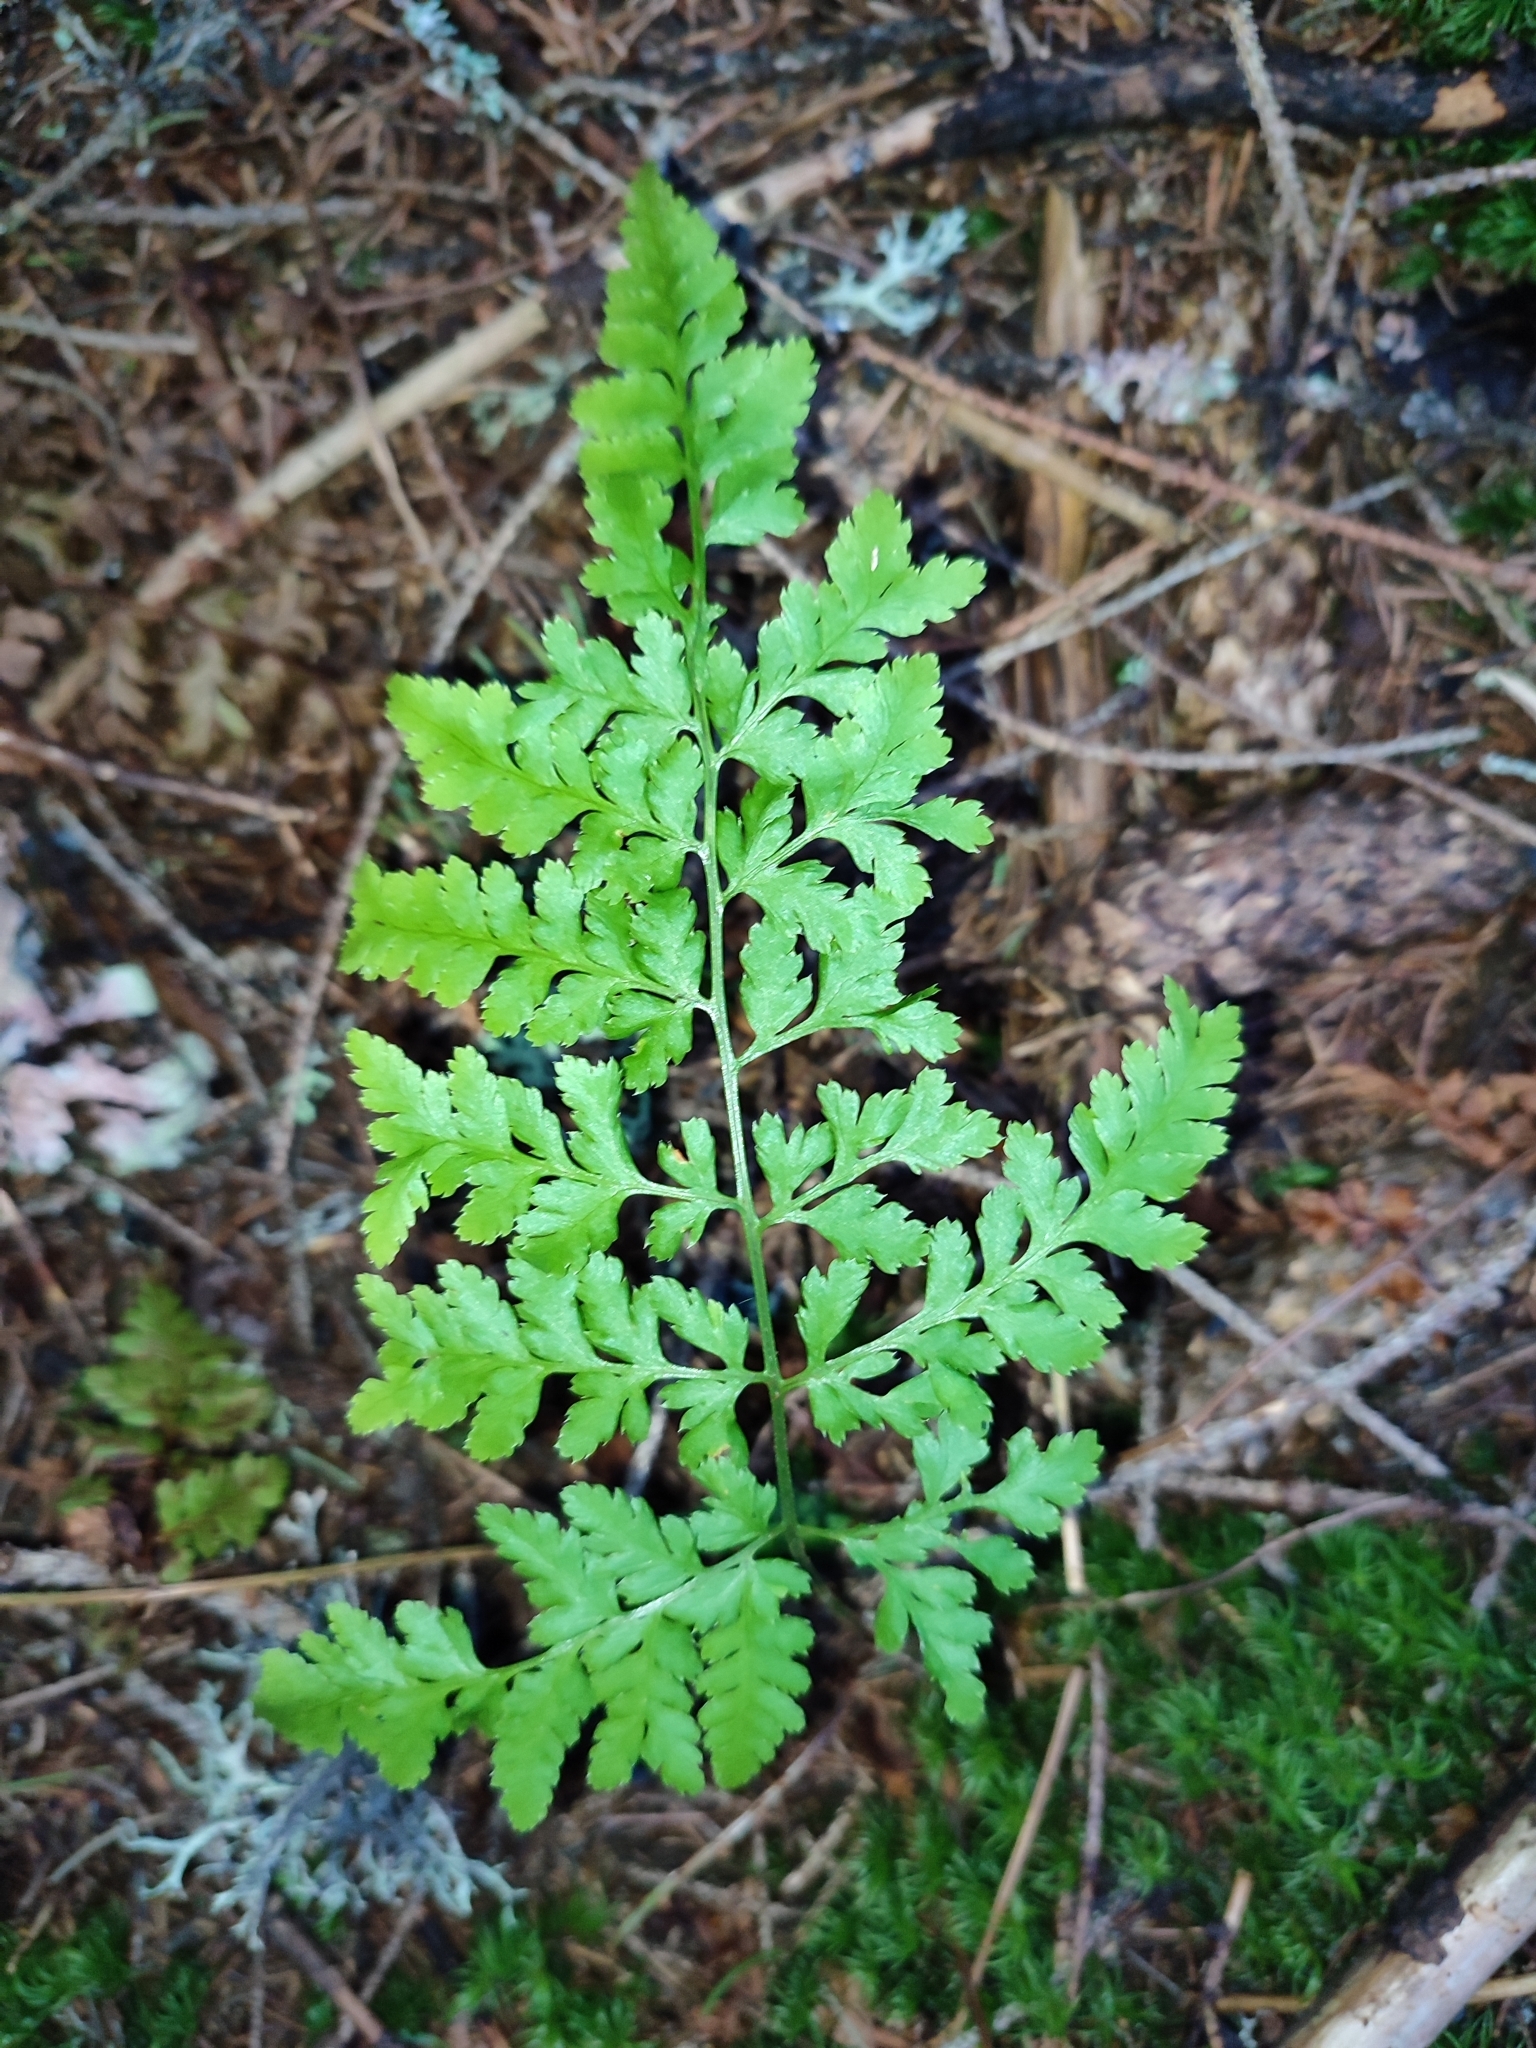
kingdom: Plantae
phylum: Tracheophyta
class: Polypodiopsida
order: Polypodiales
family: Dryopteridaceae
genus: Dryopteris
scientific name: Dryopteris carthusiana
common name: Narrow buckler-fern
